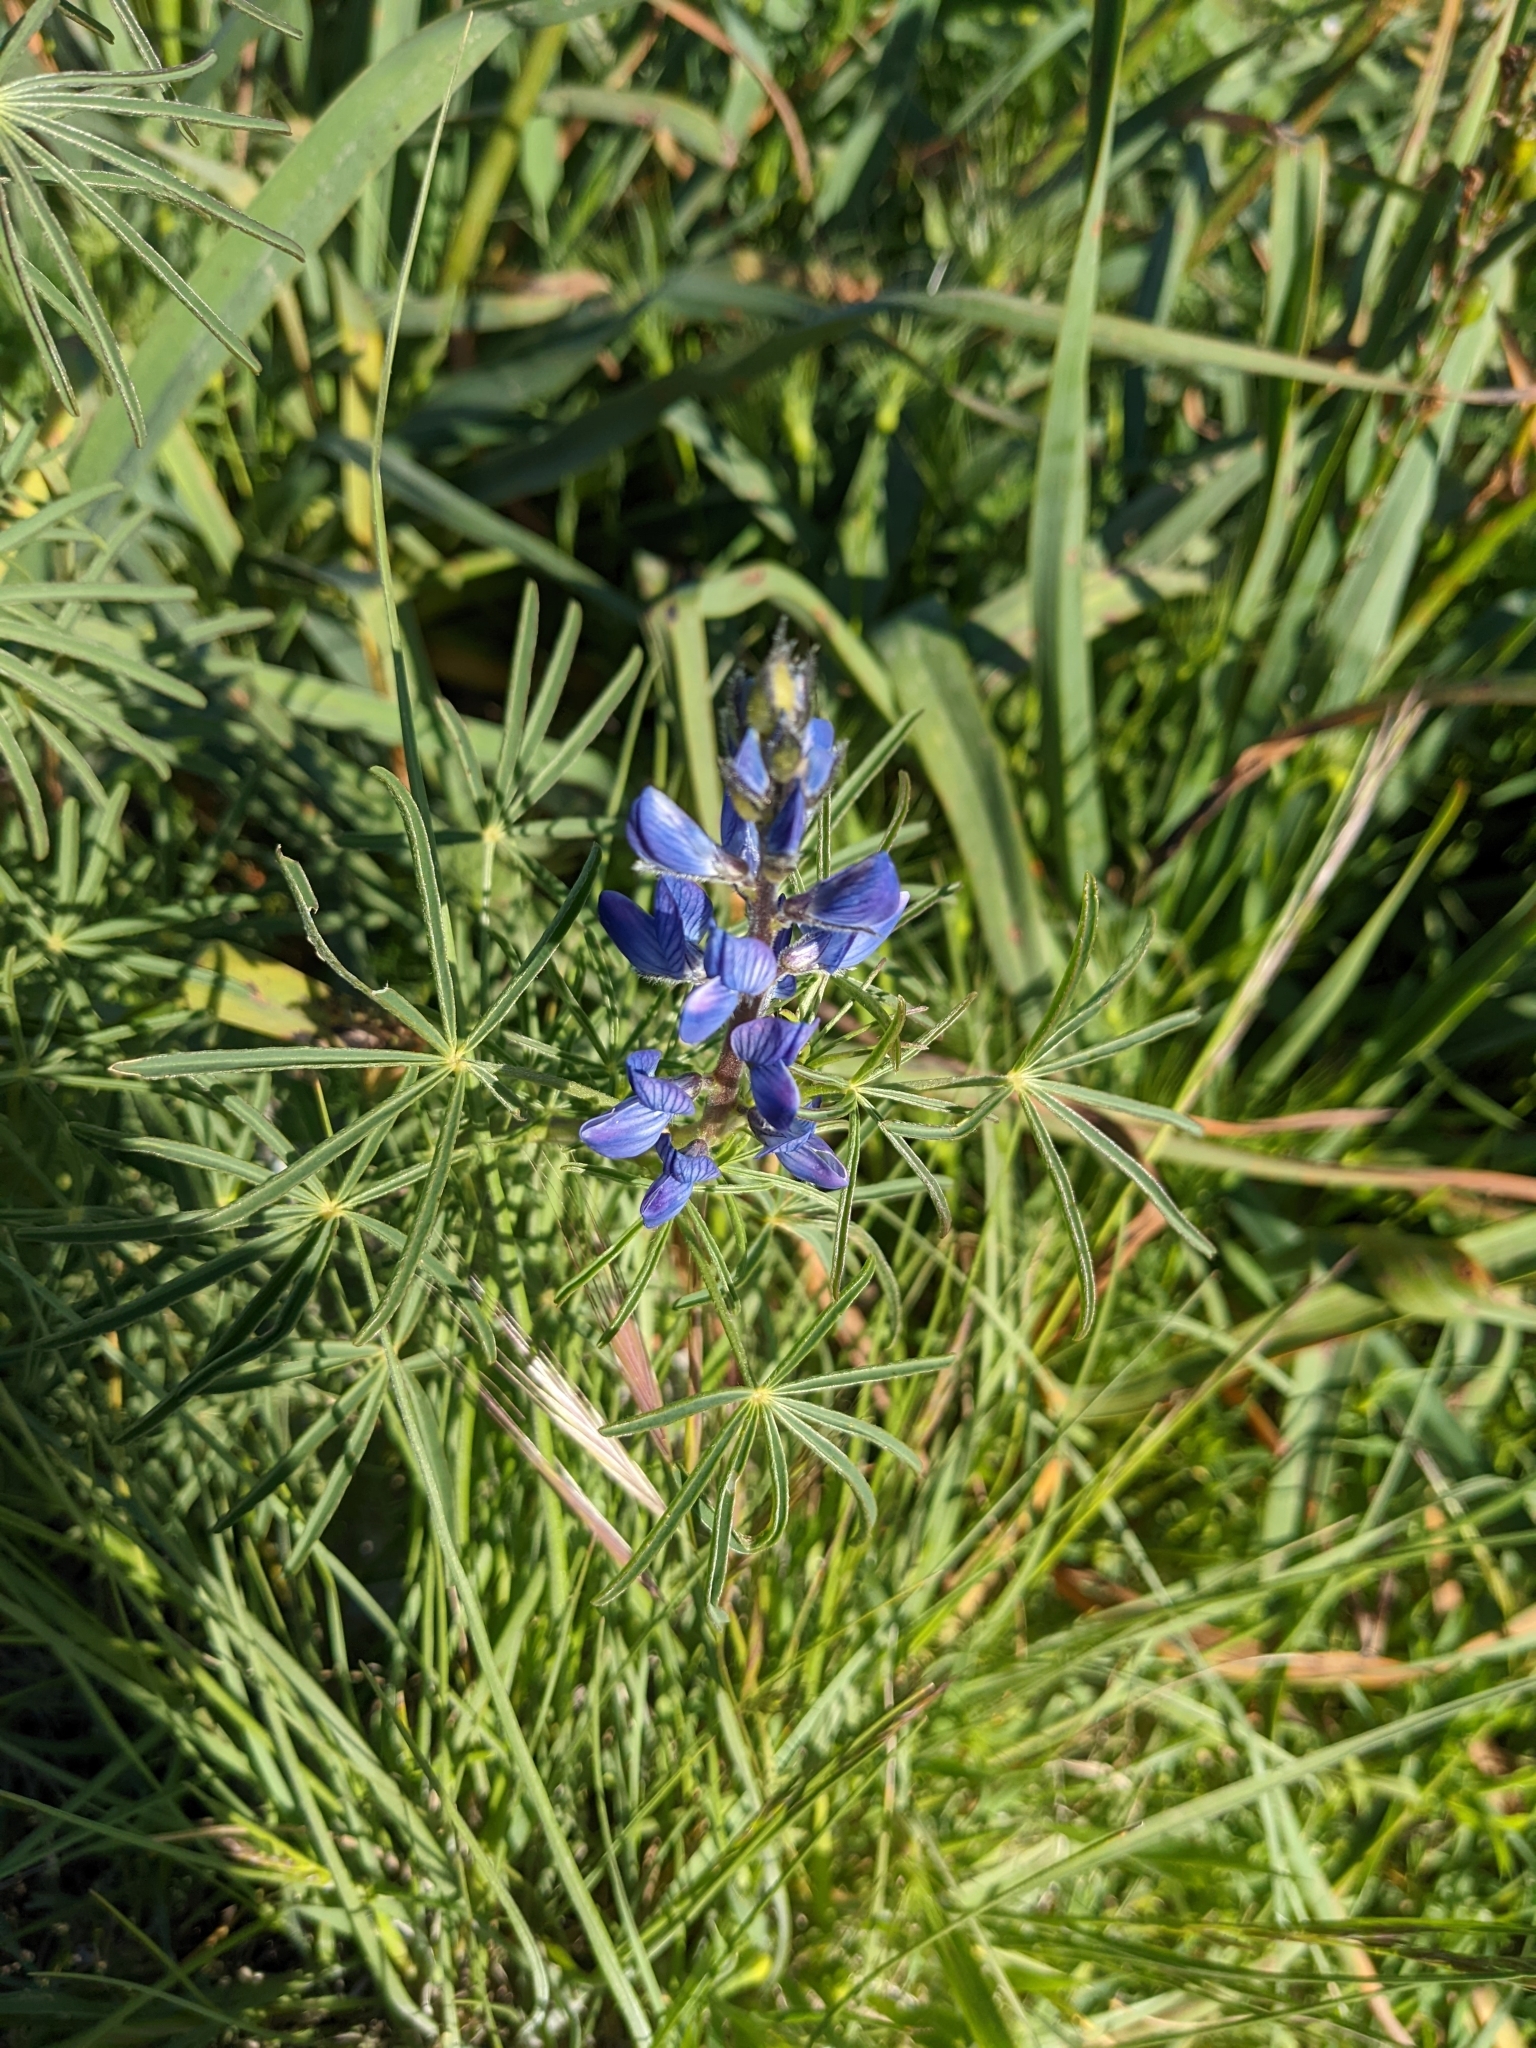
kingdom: Plantae
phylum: Tracheophyta
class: Magnoliopsida
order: Fabales
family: Fabaceae
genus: Lupinus
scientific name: Lupinus angustifolius
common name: Narrow-leaved lupin
